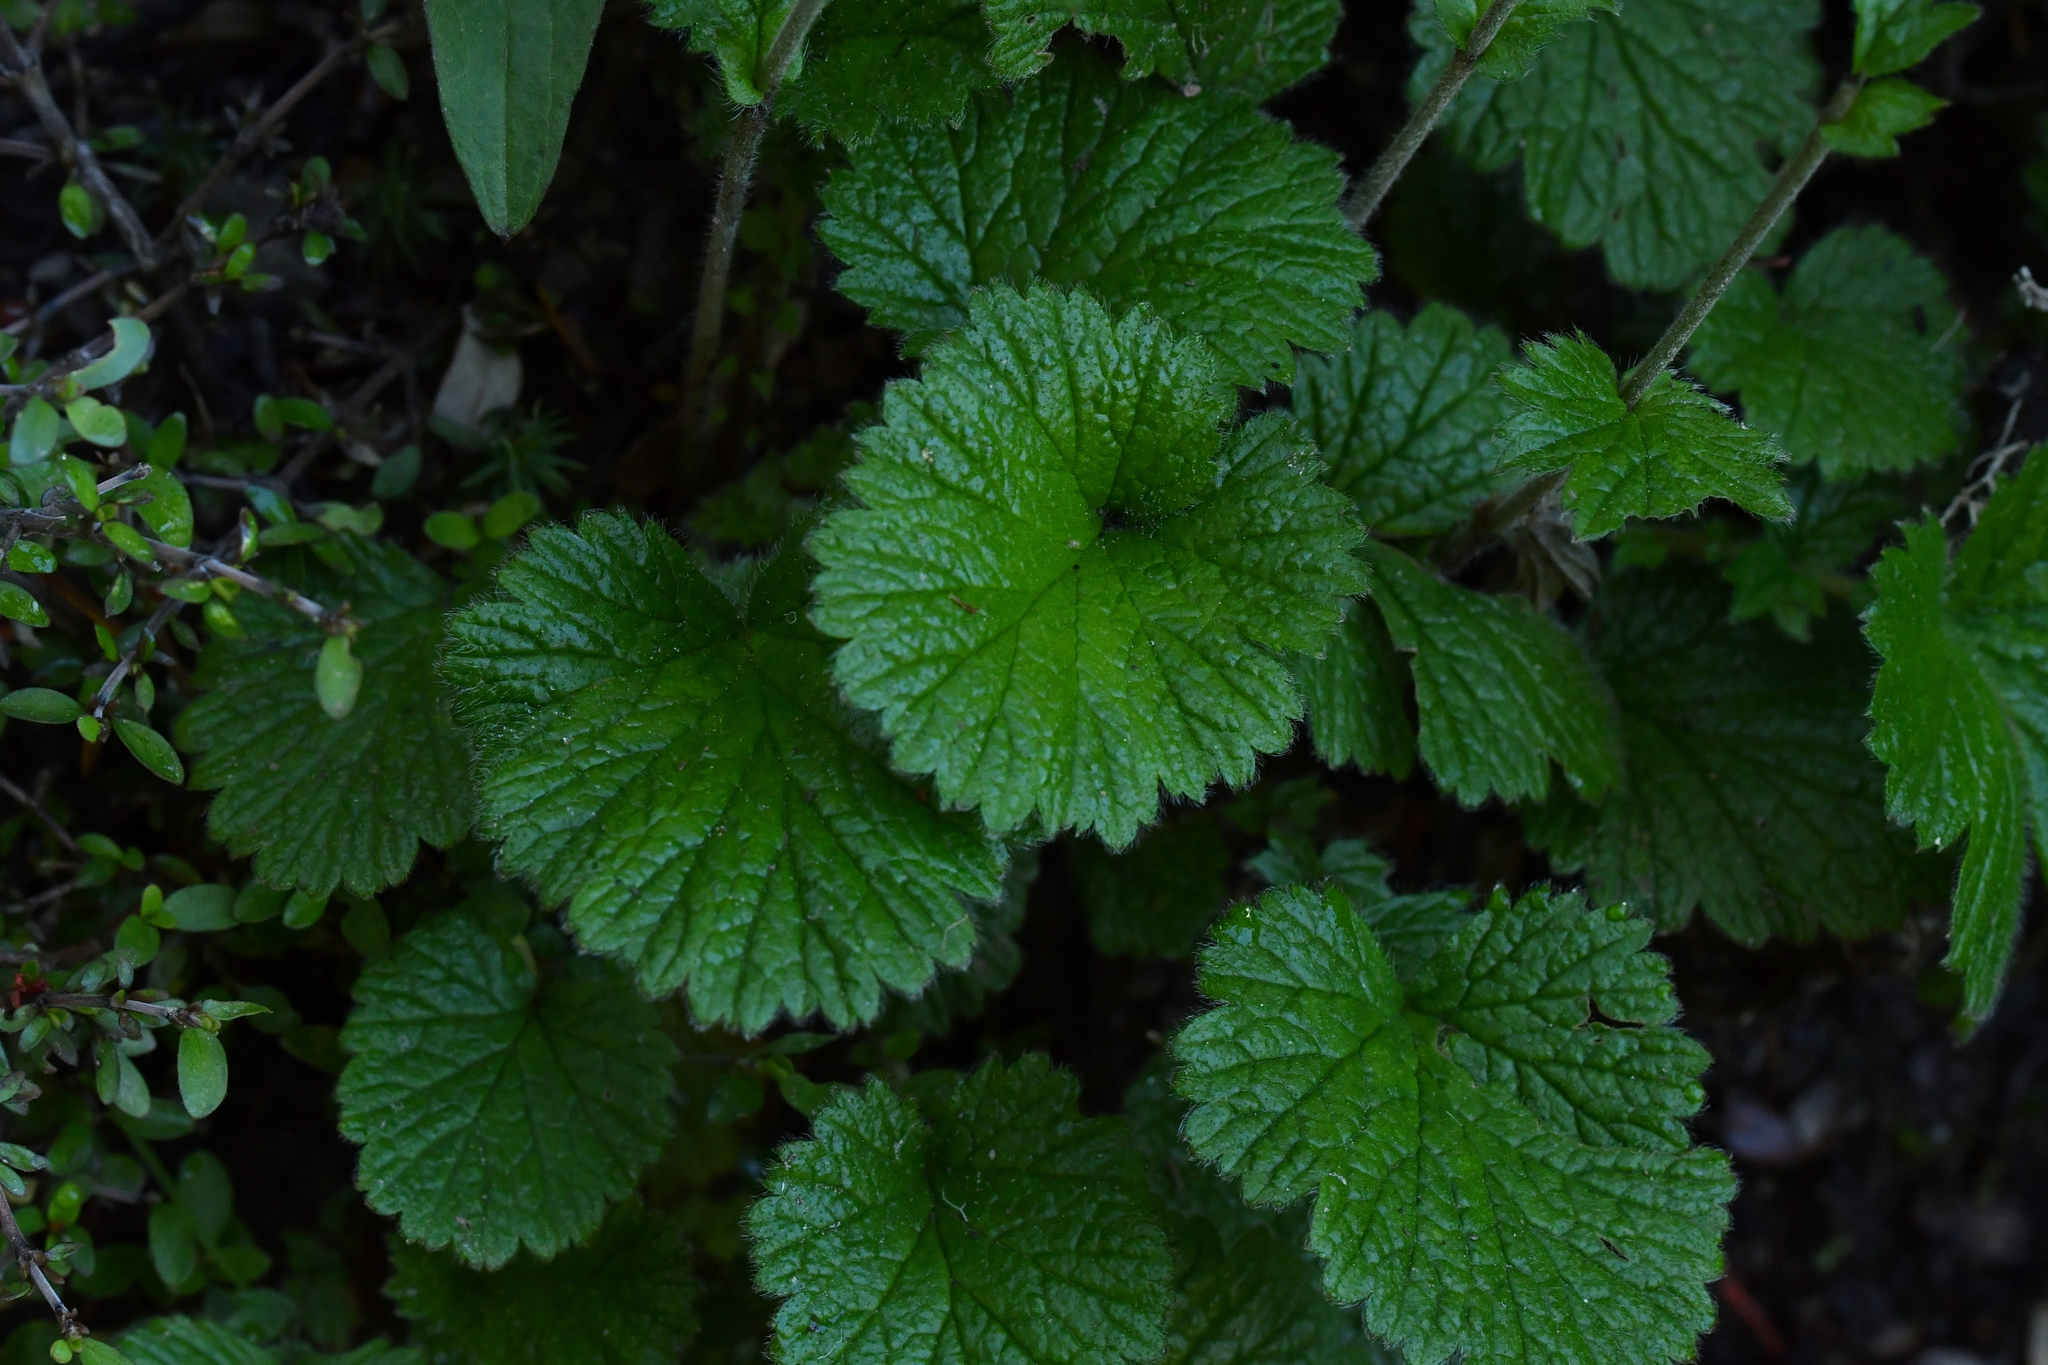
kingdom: Plantae
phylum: Tracheophyta
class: Magnoliopsida
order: Rosales
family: Rosaceae
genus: Geum
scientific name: Geum cockaynei
